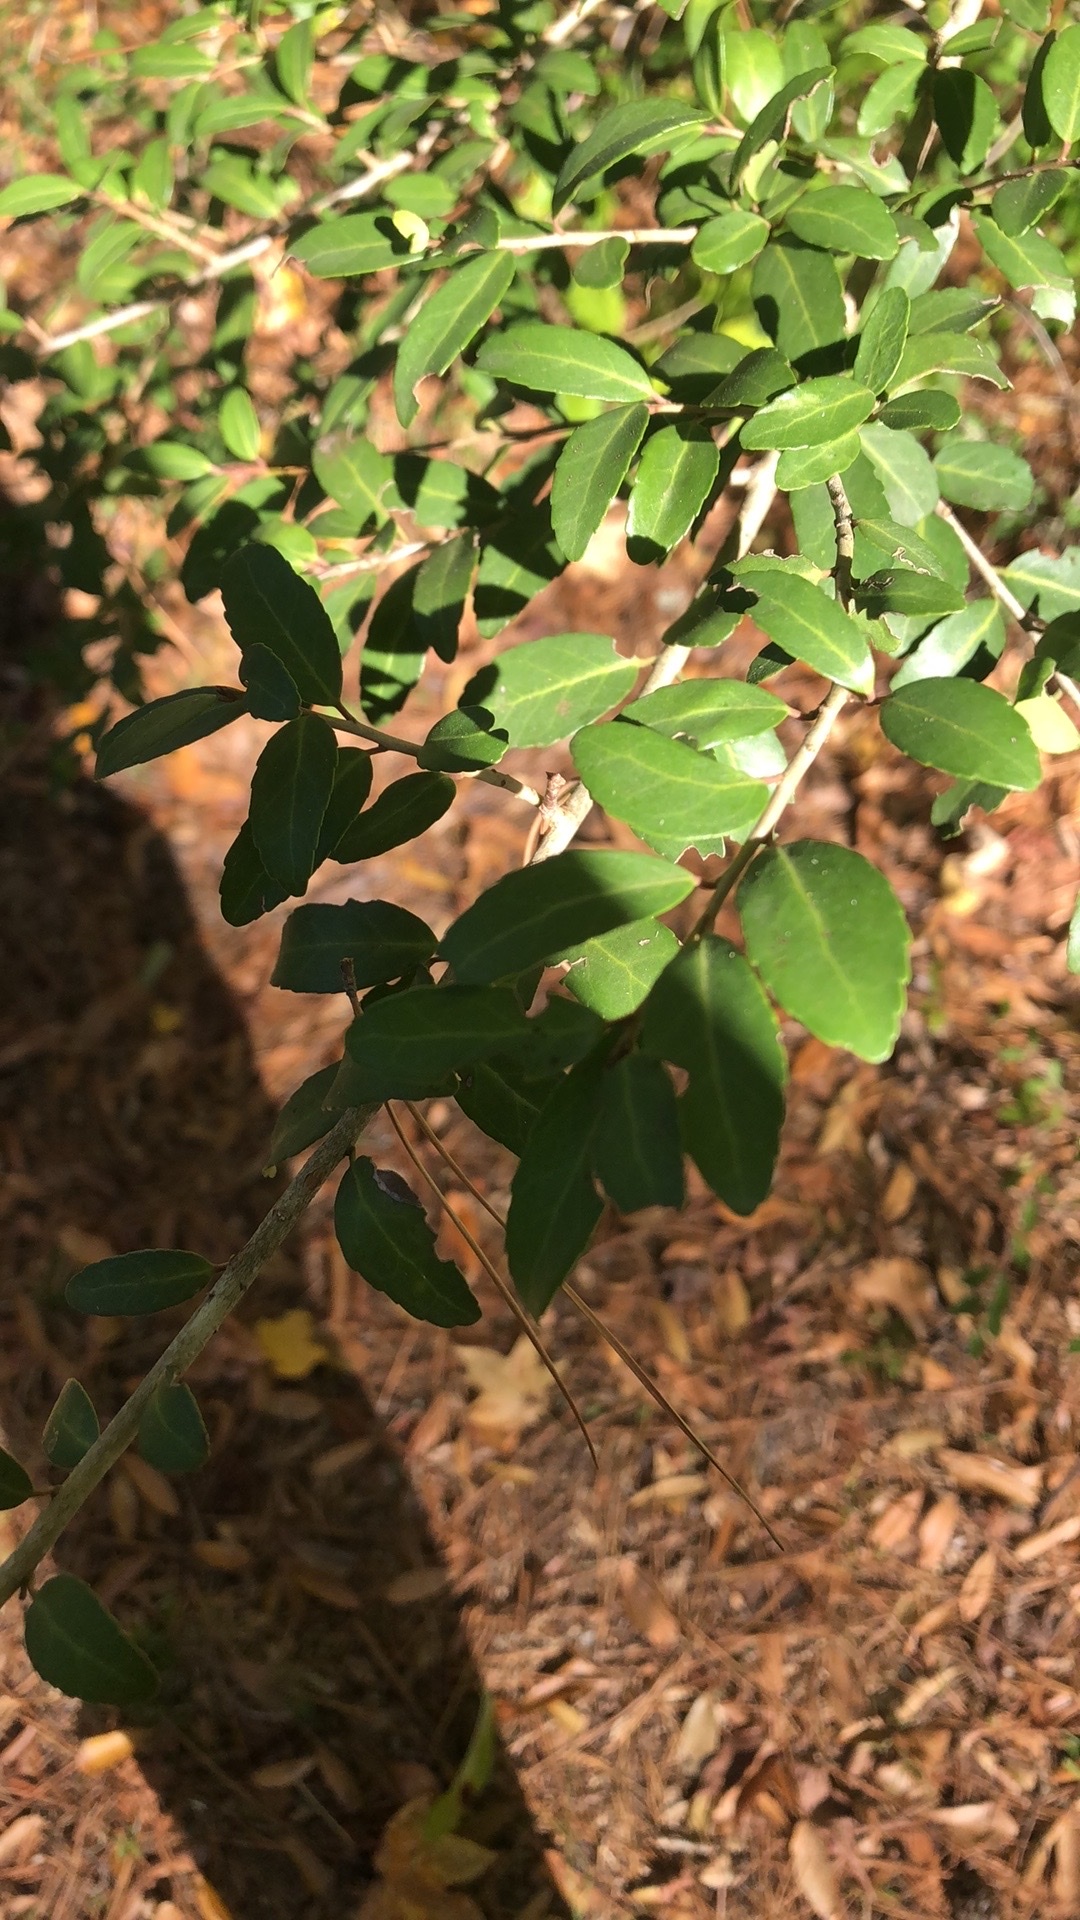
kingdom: Plantae
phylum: Tracheophyta
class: Magnoliopsida
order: Aquifoliales
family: Aquifoliaceae
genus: Ilex
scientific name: Ilex vomitoria
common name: Yaupon holly
